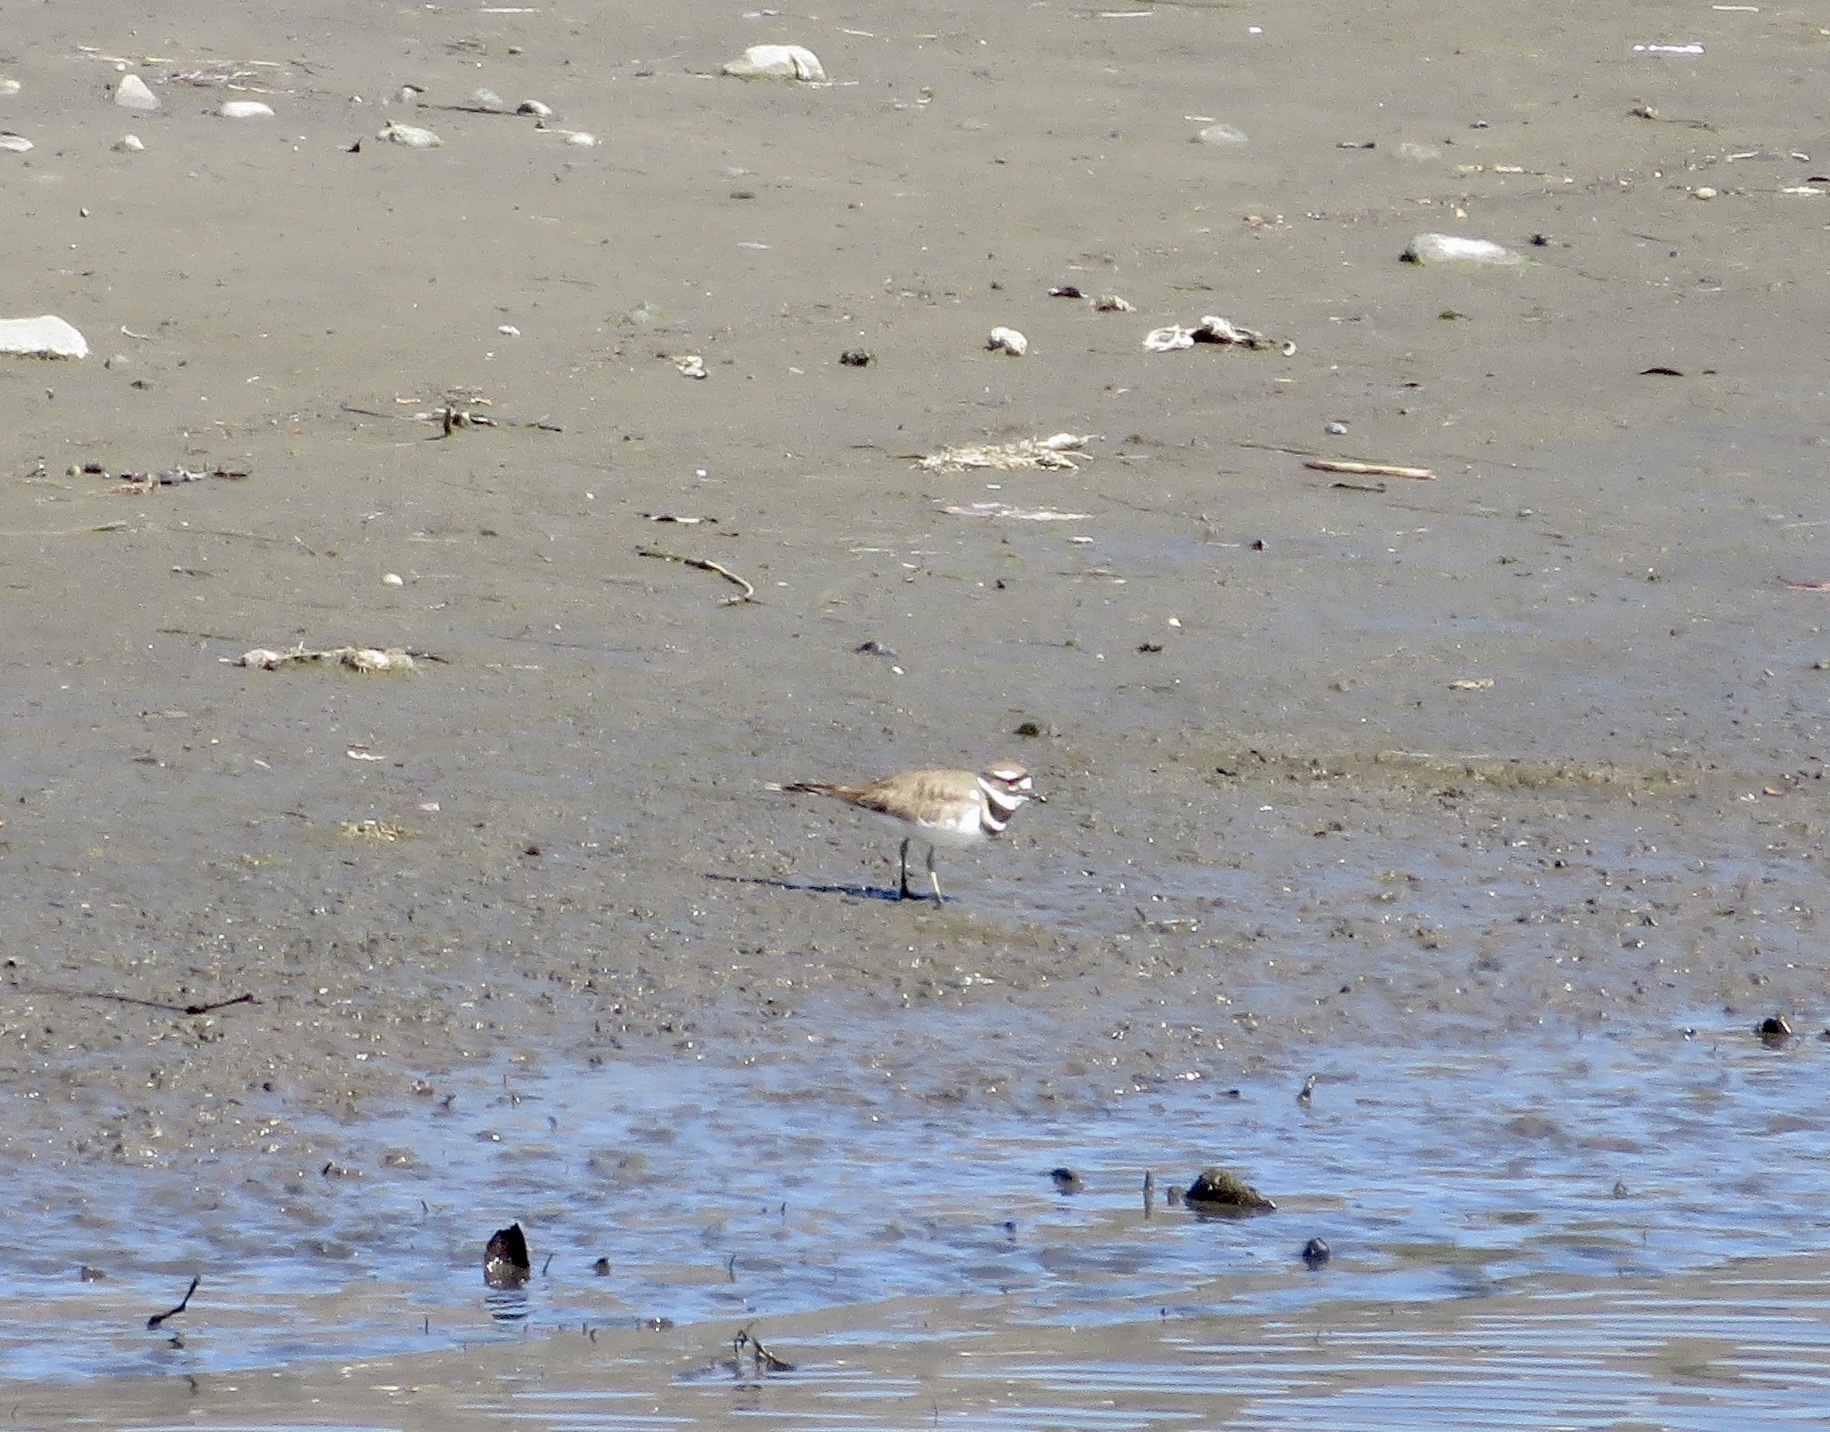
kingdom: Animalia
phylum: Chordata
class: Aves
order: Charadriiformes
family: Charadriidae
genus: Charadrius
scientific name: Charadrius vociferus
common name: Killdeer
